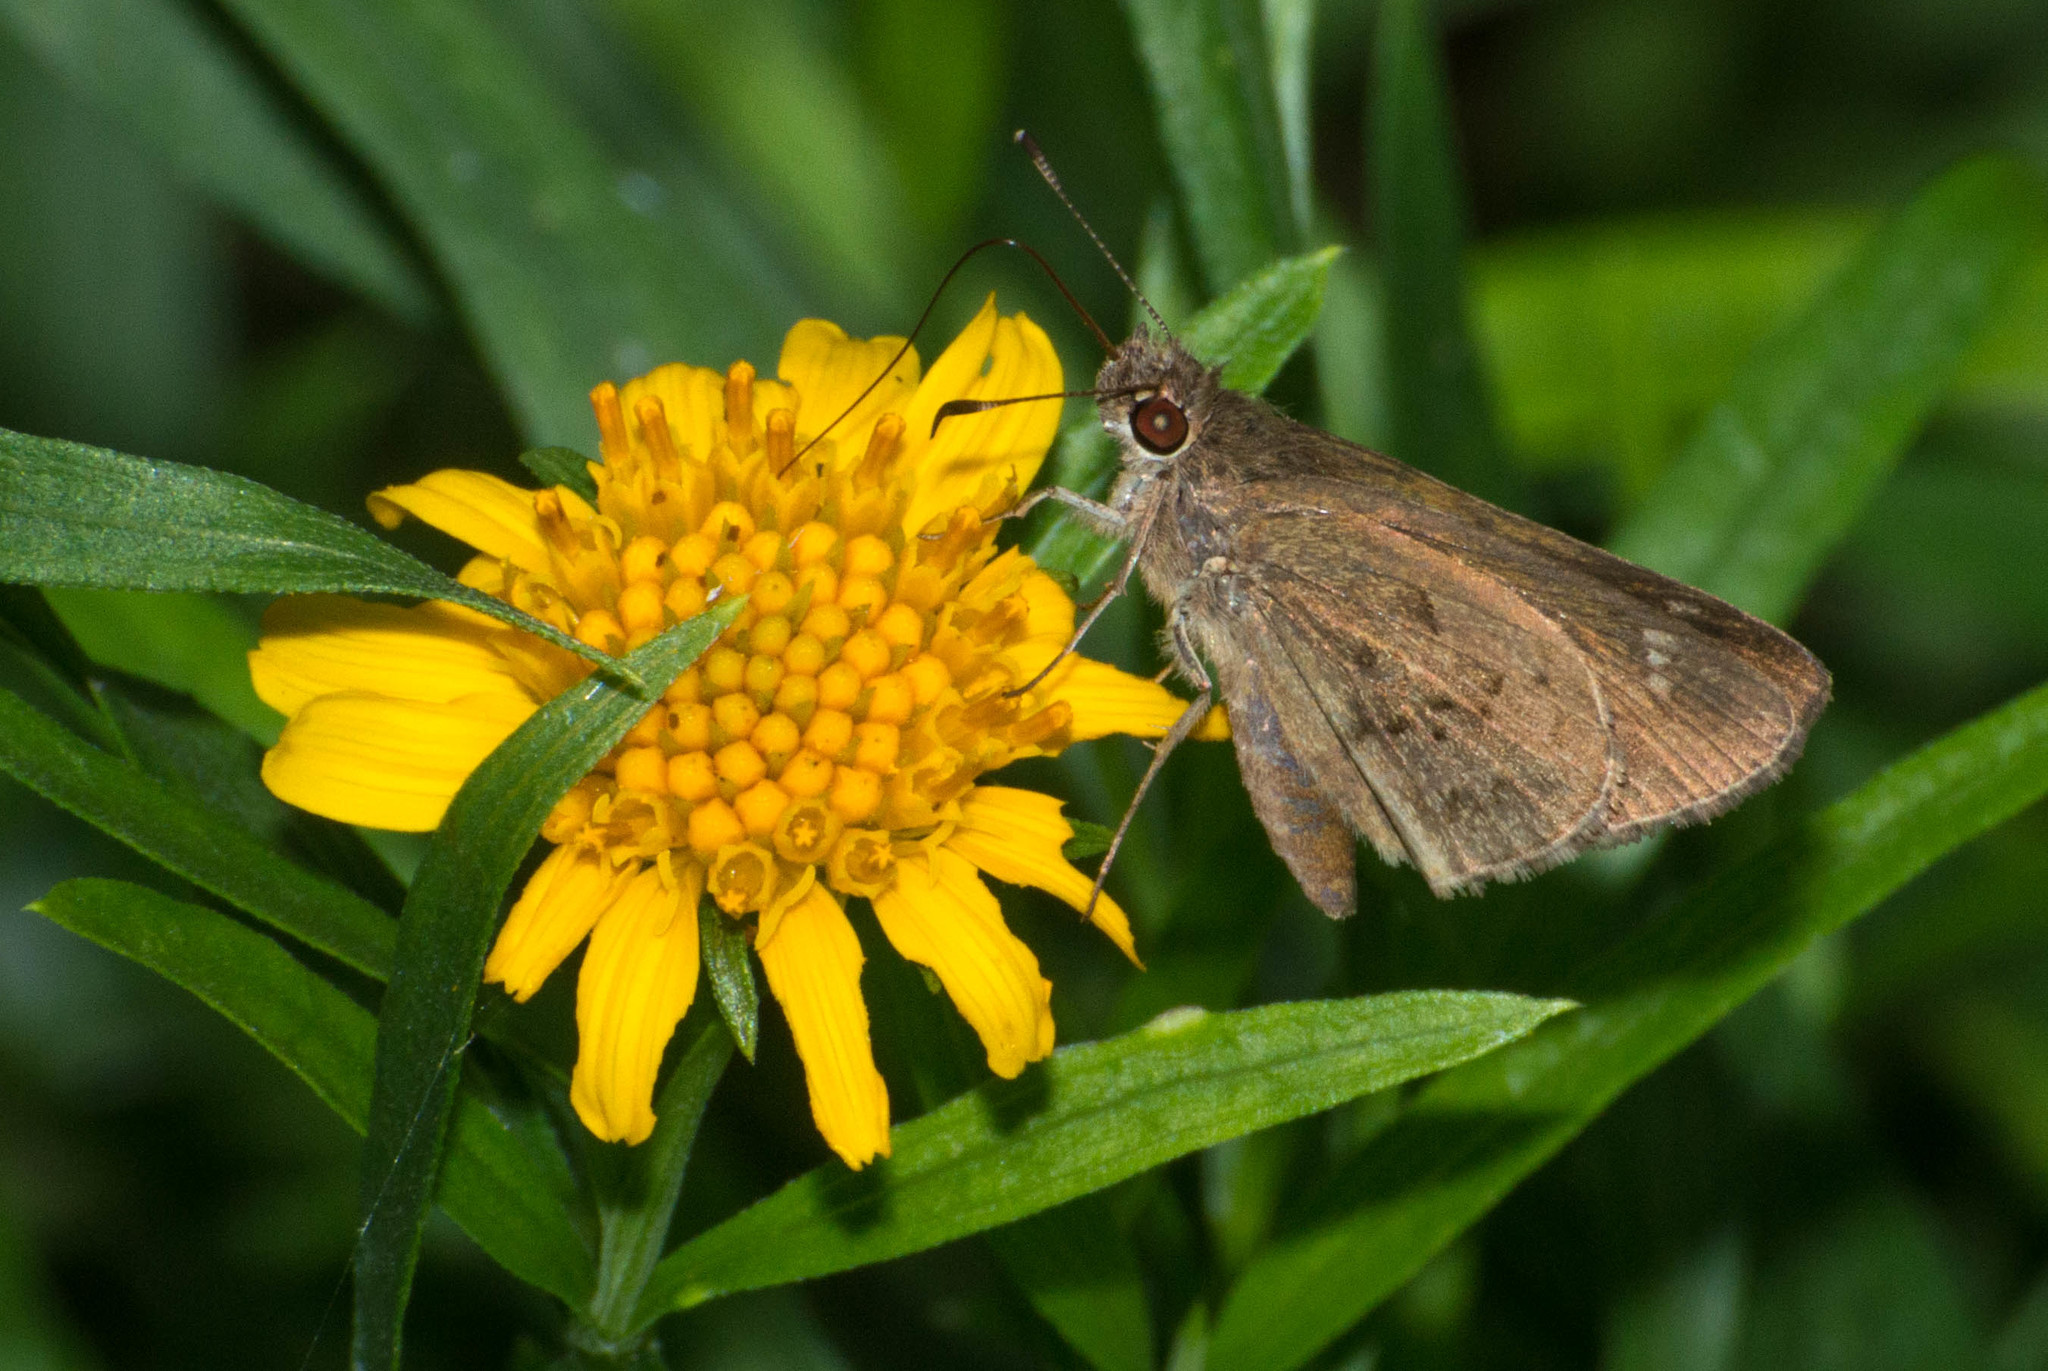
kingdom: Animalia
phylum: Arthropoda
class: Insecta
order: Lepidoptera
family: Hesperiidae
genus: Cymaenes
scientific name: Cymaenes gisca
